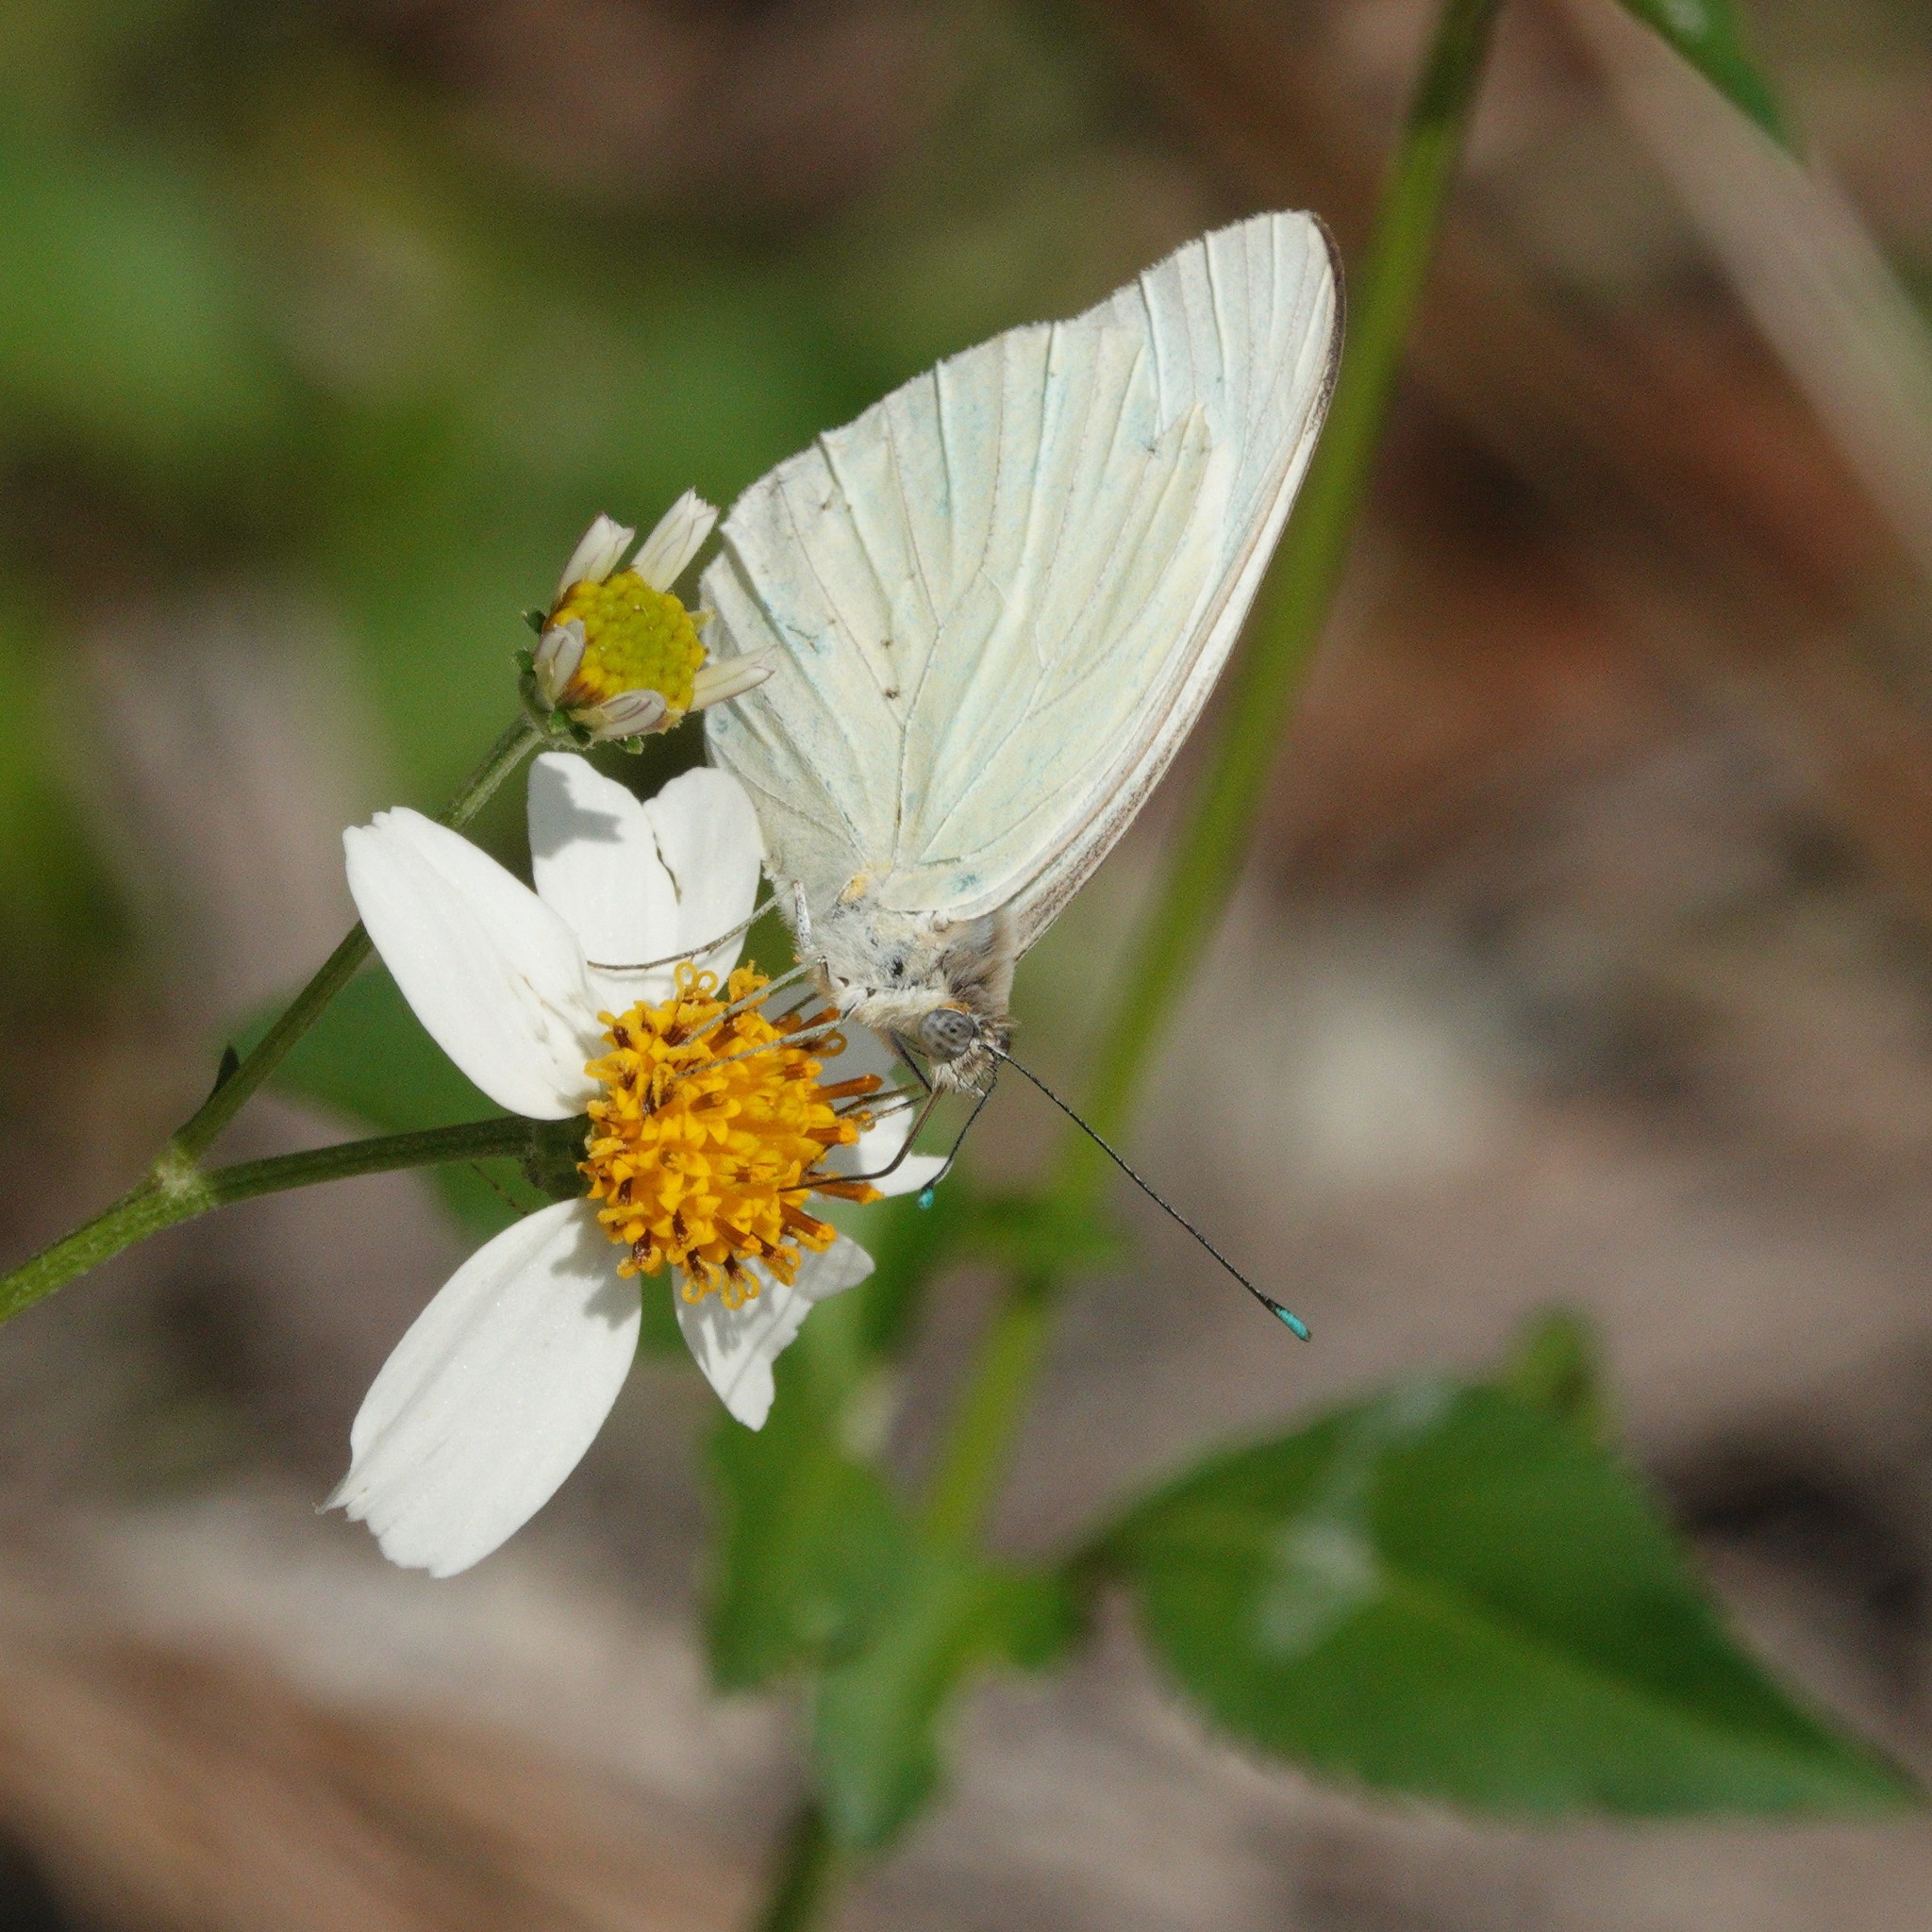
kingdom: Animalia
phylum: Arthropoda
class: Insecta
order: Lepidoptera
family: Pieridae
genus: Ascia
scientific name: Ascia monuste
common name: Great southern white
